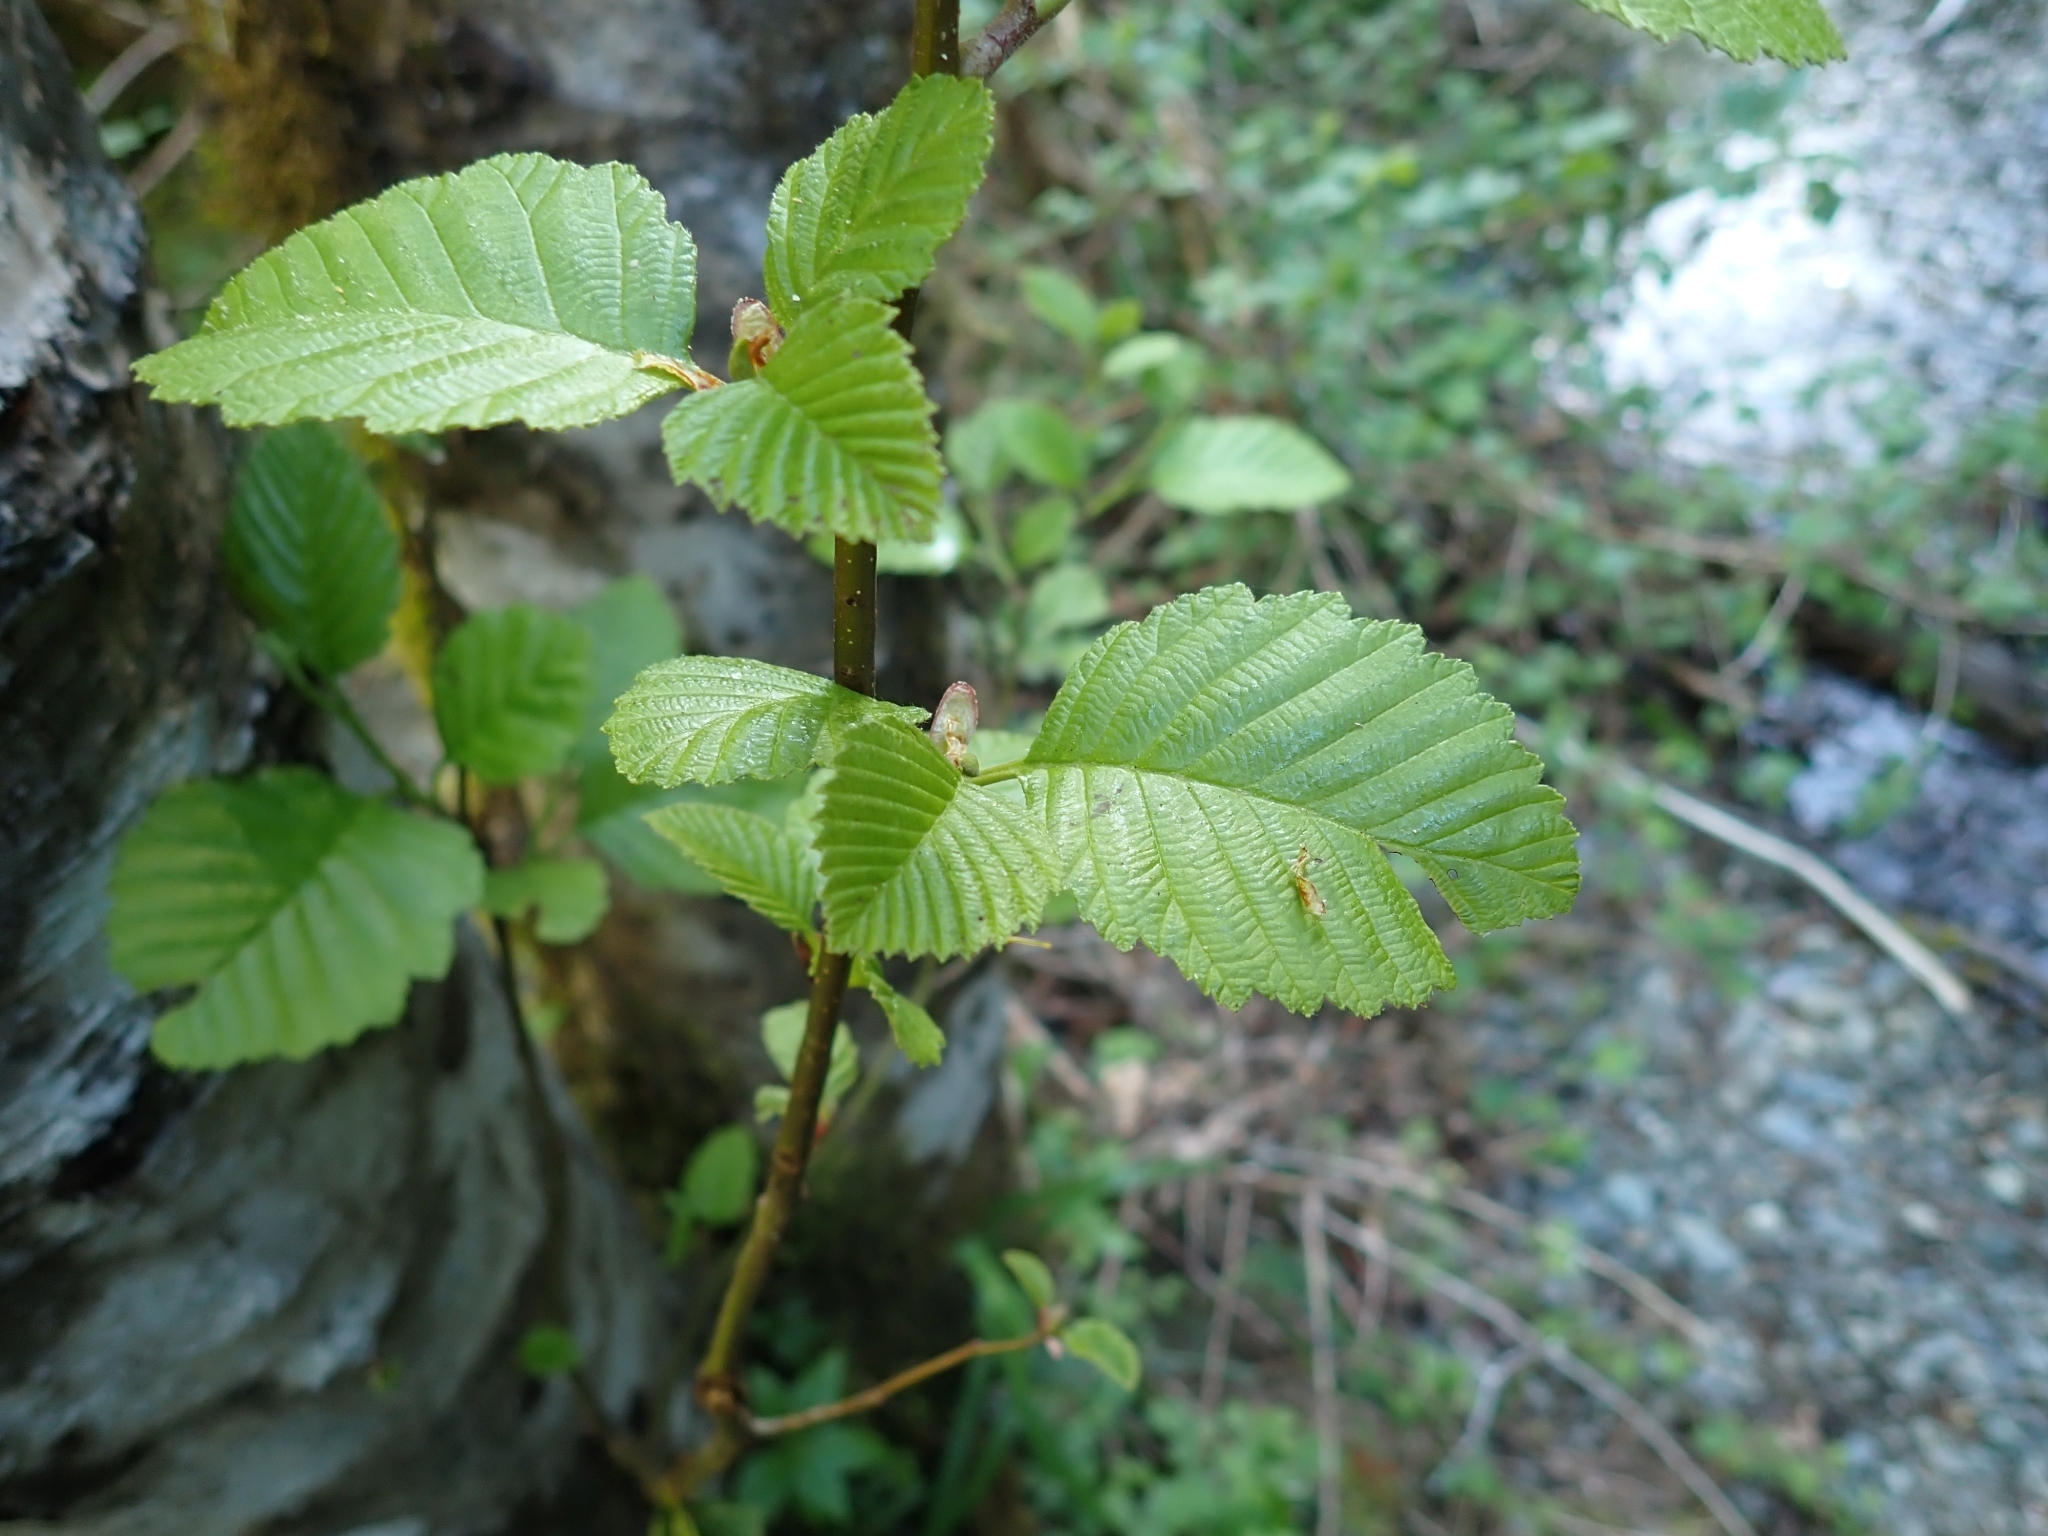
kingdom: Plantae
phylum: Tracheophyta
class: Magnoliopsida
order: Fagales
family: Betulaceae
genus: Alnus
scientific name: Alnus rubra
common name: Red alder
